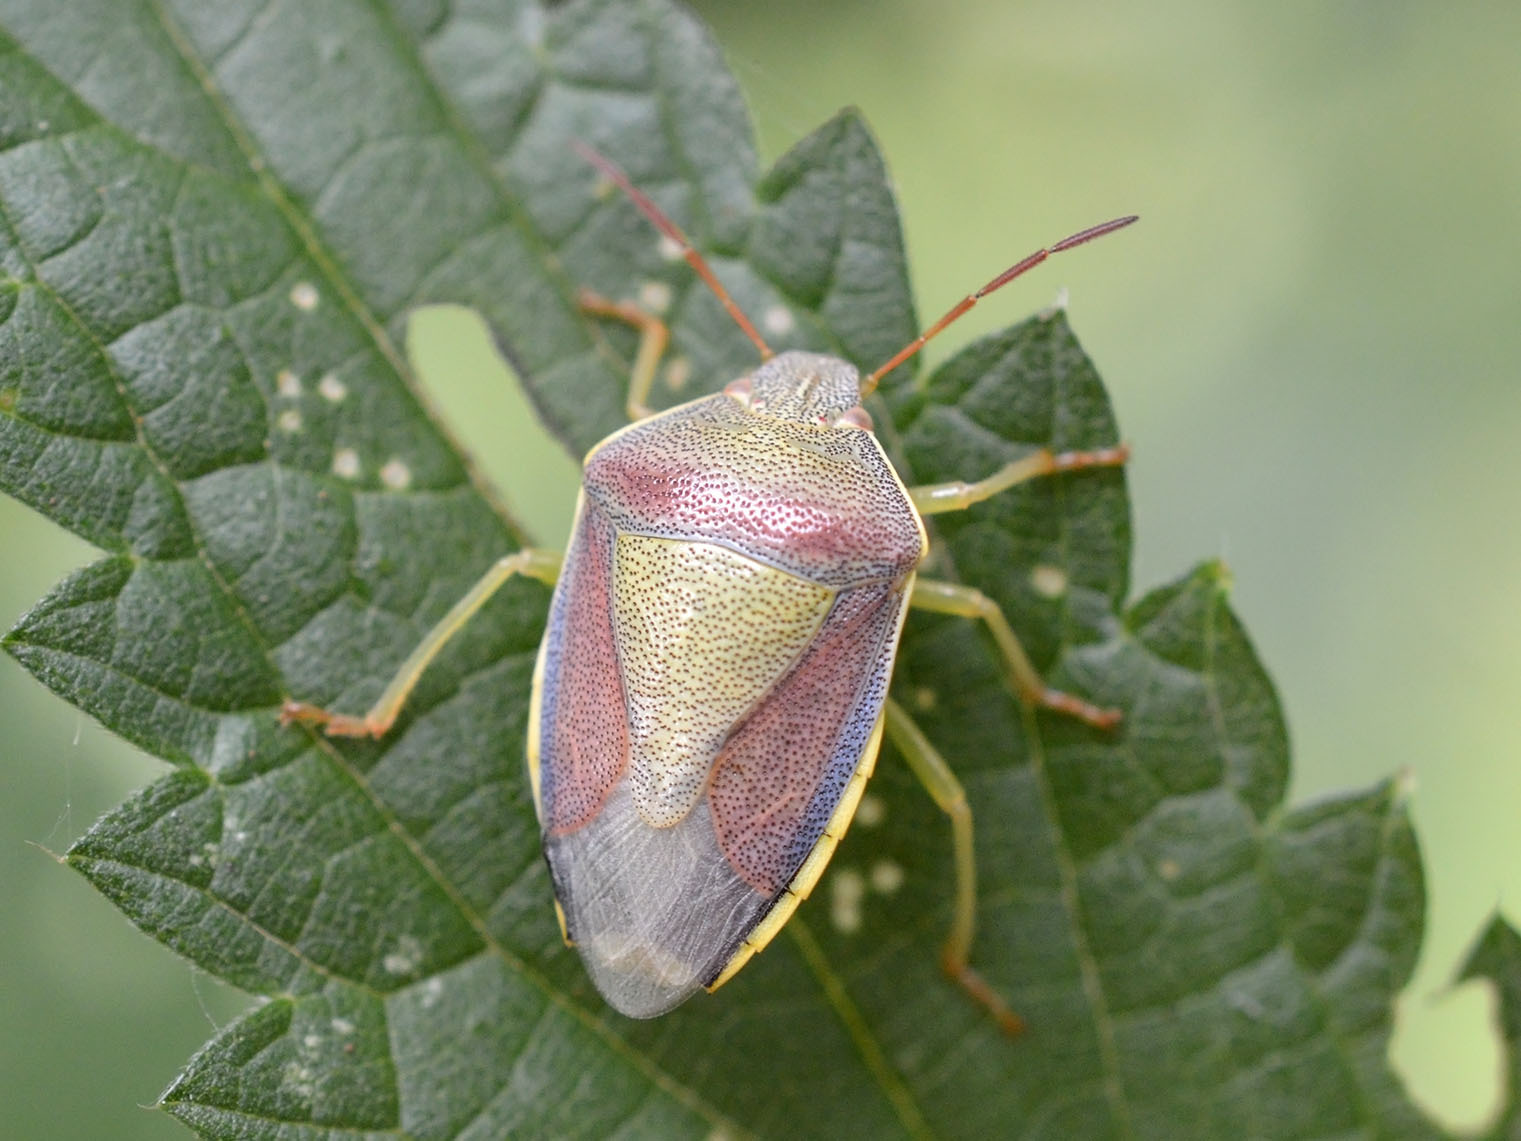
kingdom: Animalia
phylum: Arthropoda
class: Insecta
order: Hemiptera
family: Pentatomidae
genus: Piezodorus
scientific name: Piezodorus lituratus
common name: Stink bug
